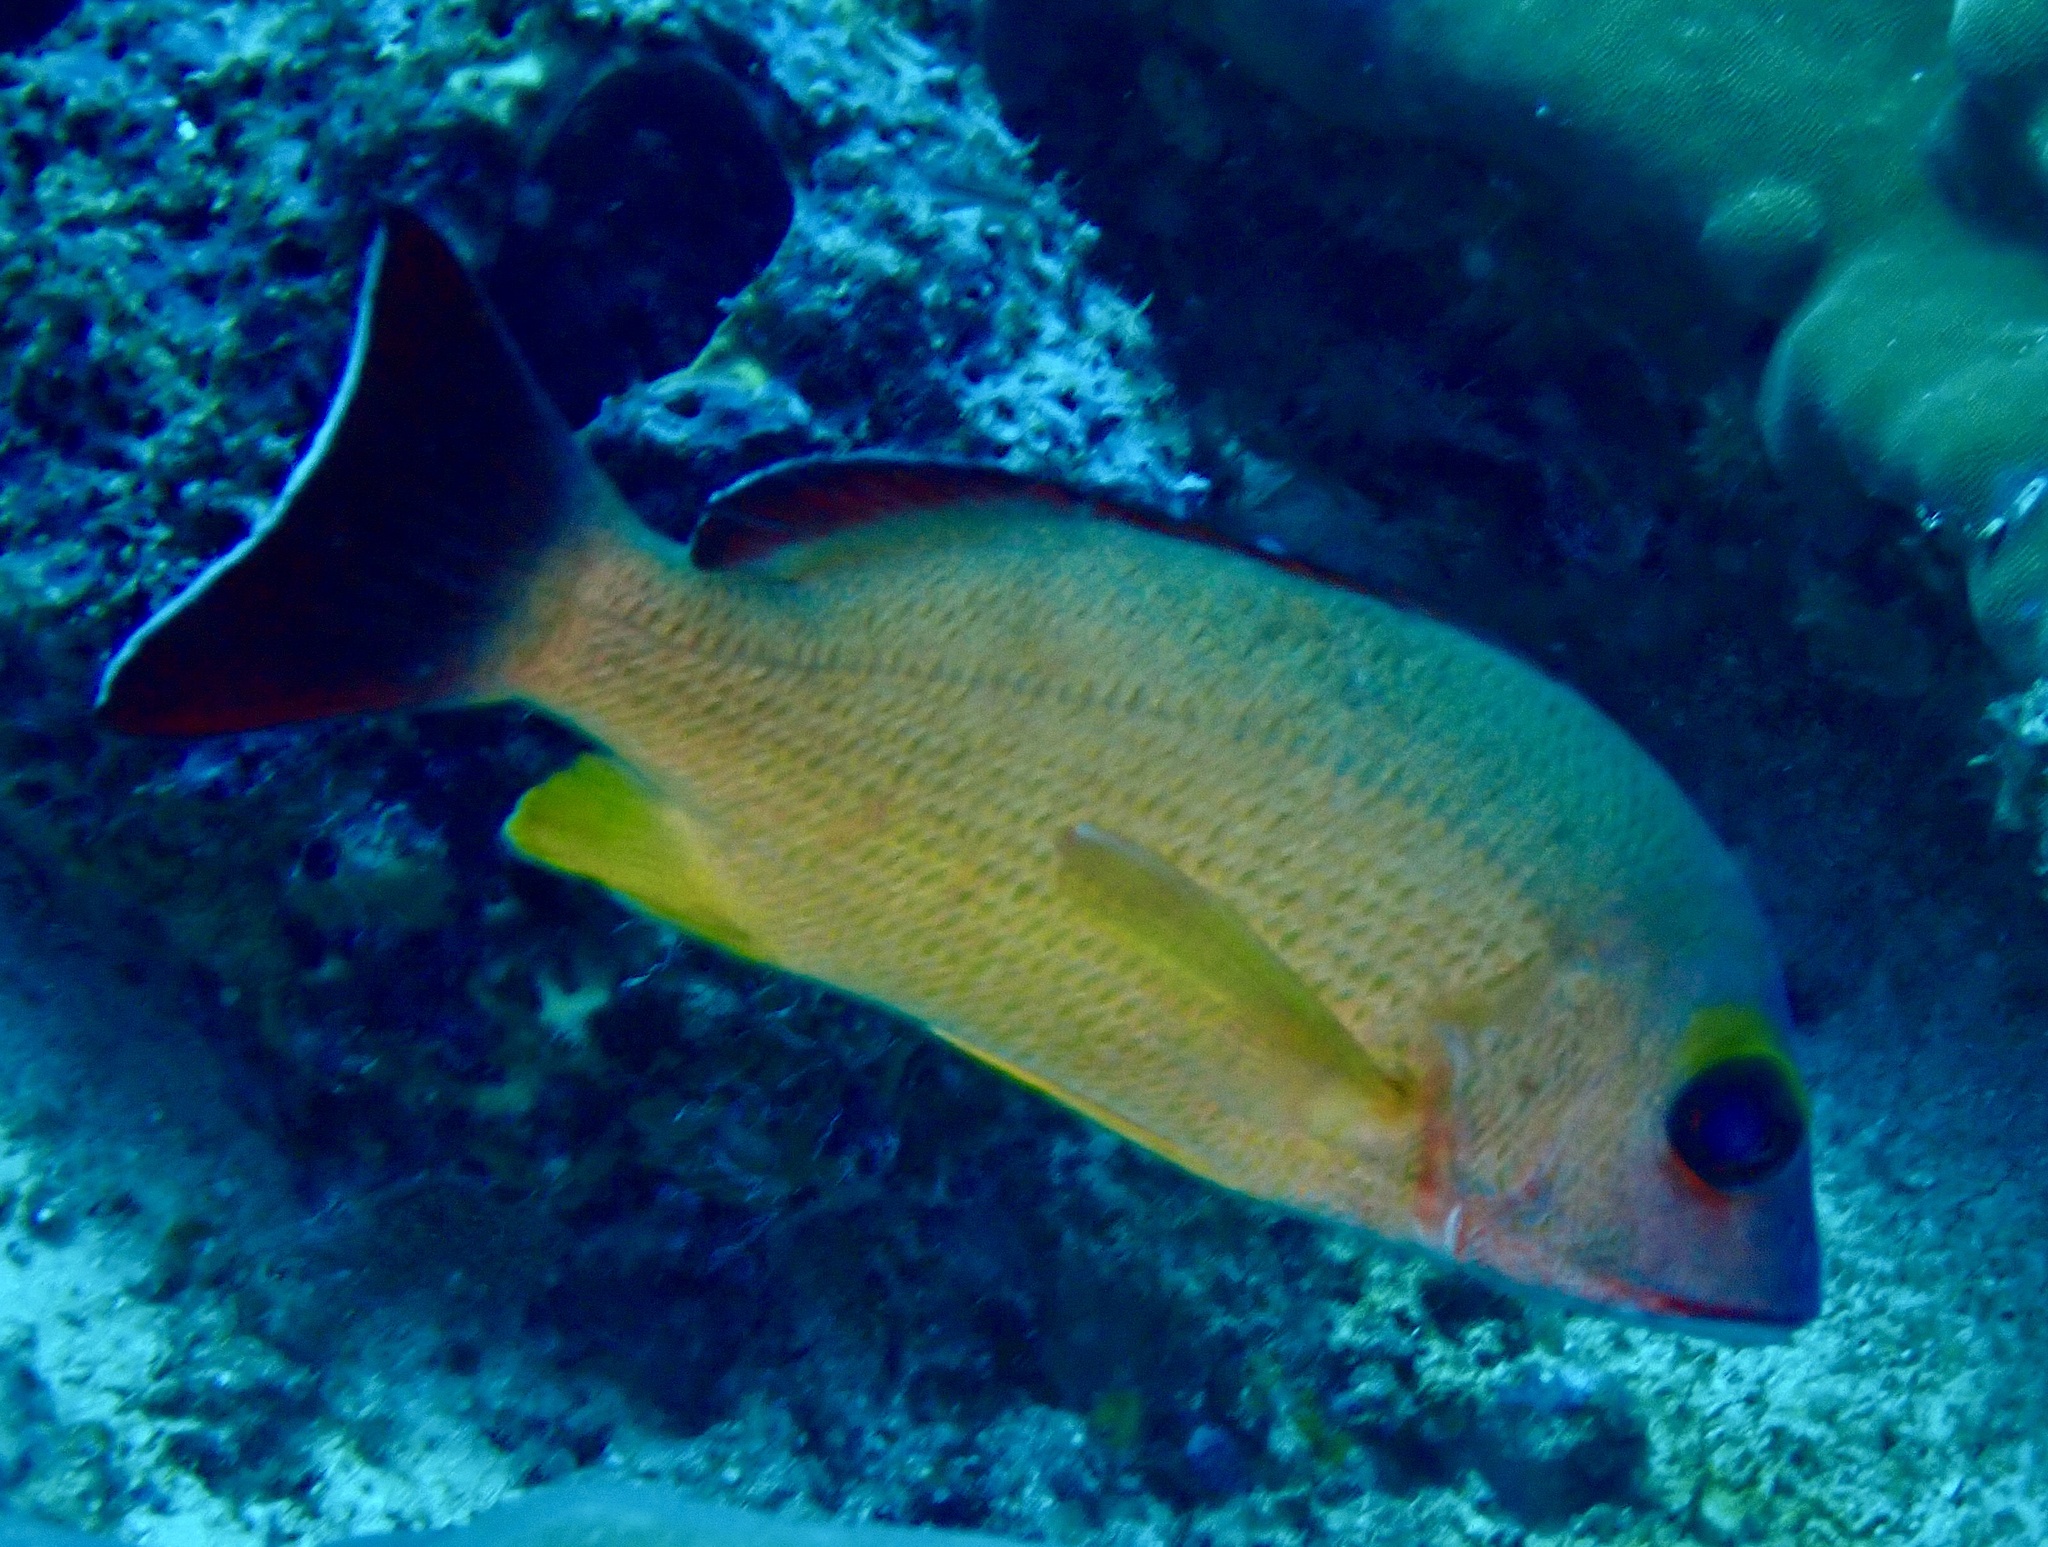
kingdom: Animalia
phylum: Chordata
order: Perciformes
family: Lutjanidae
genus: Lutjanus
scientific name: Lutjanus fulvus
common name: Blacktail snapper
